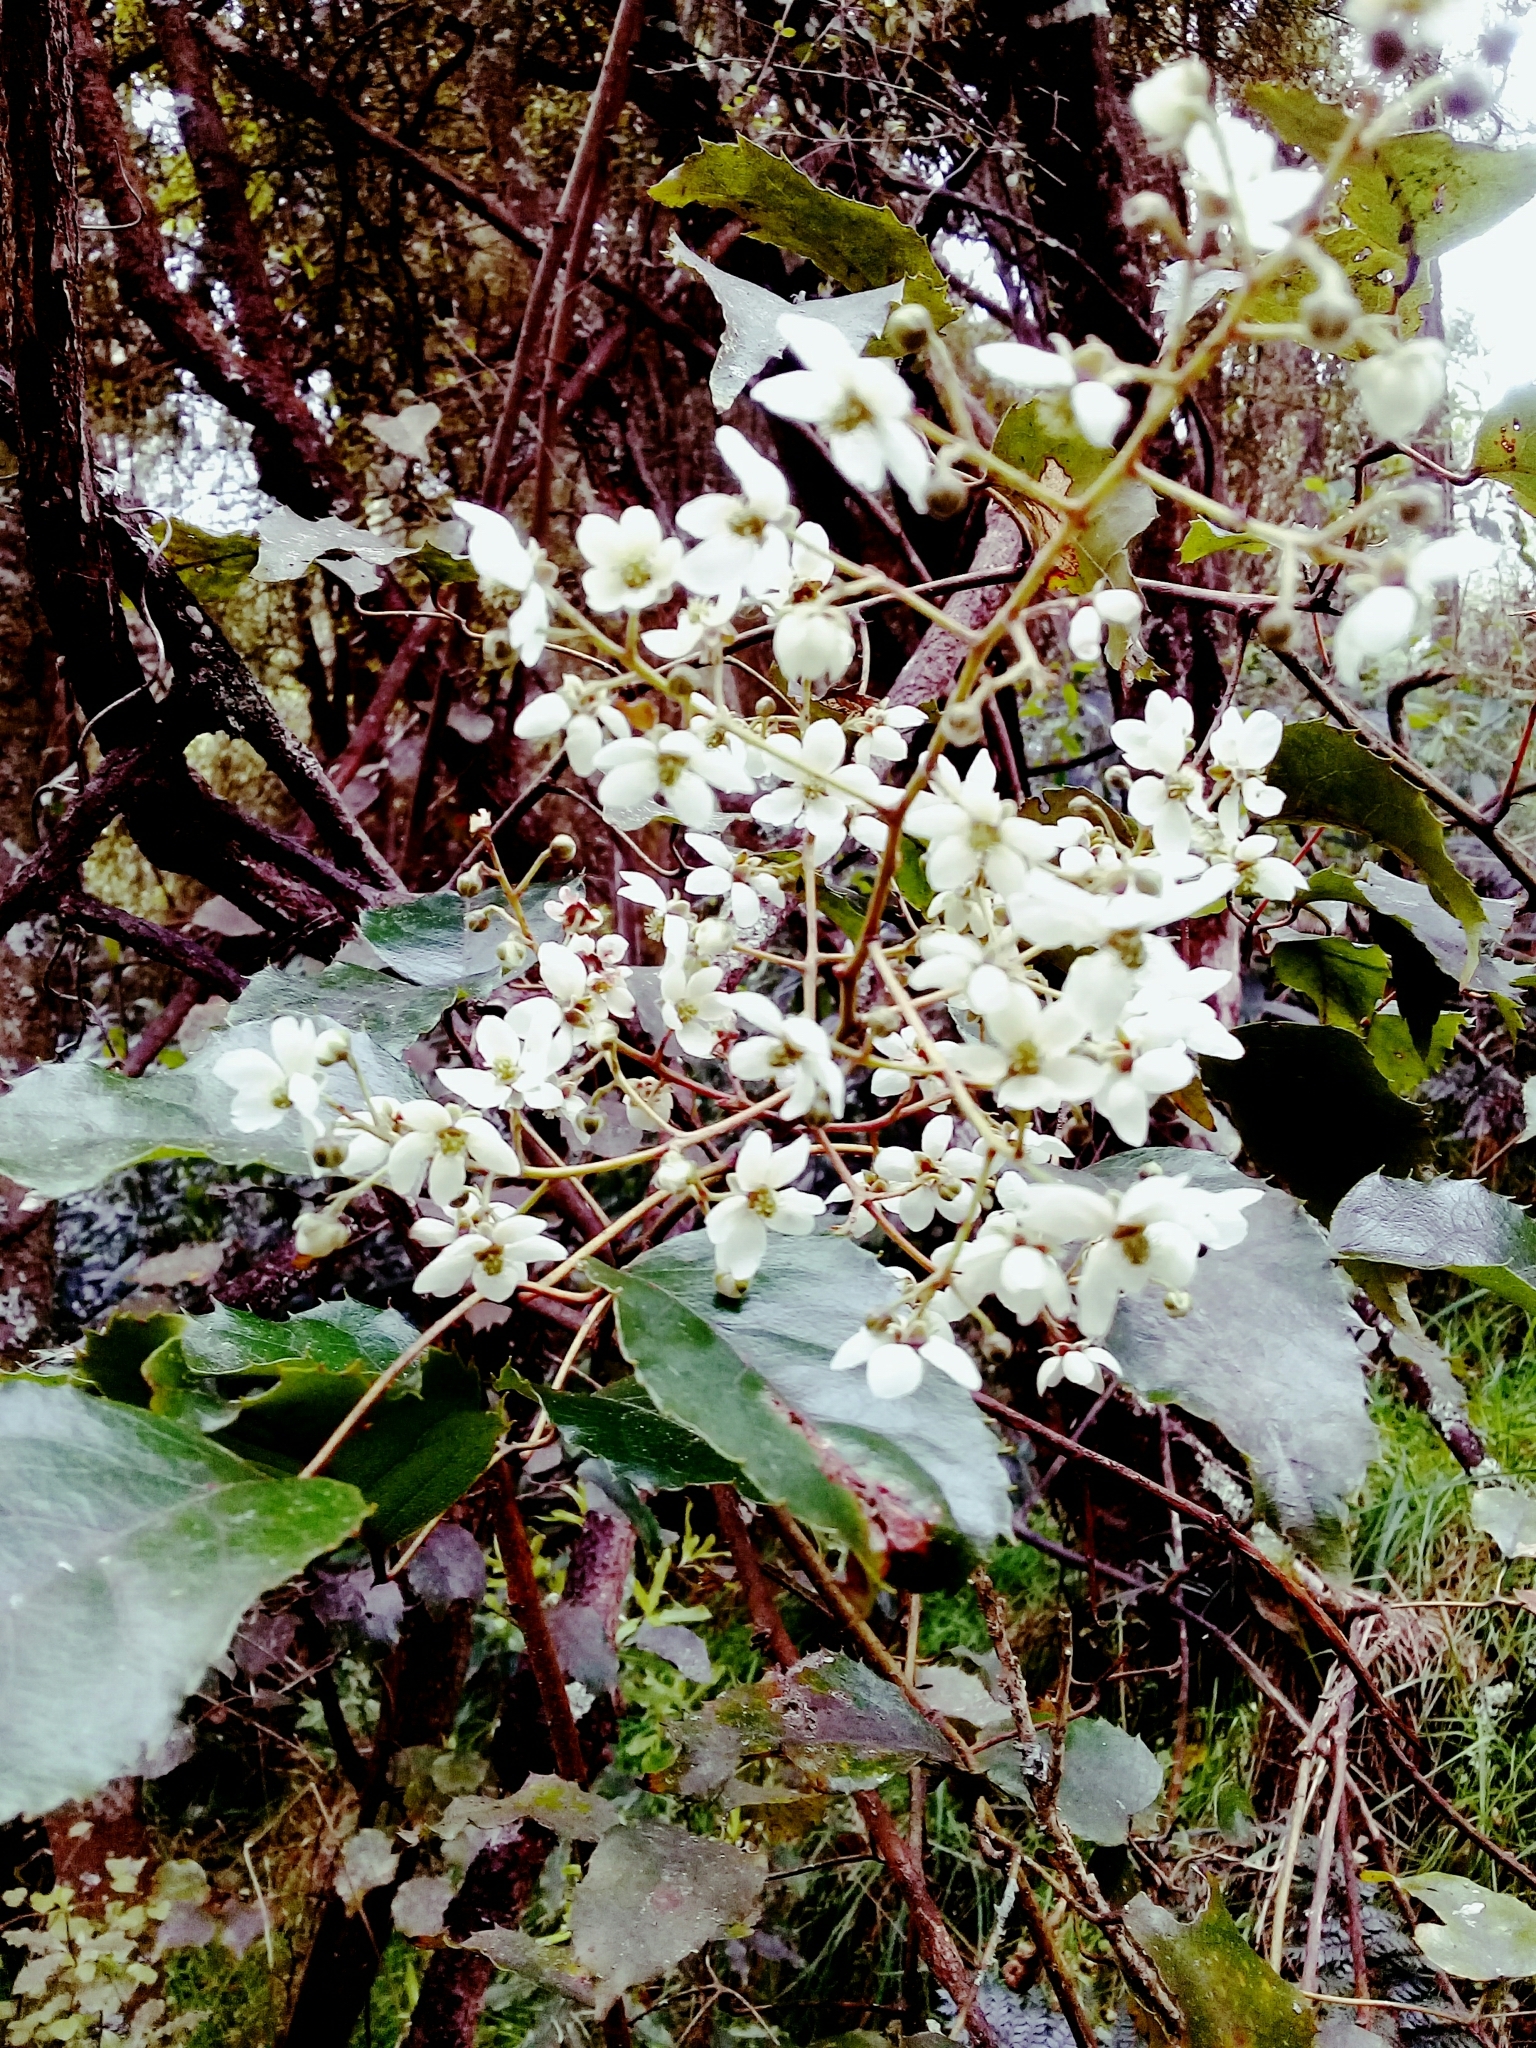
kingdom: Plantae
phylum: Tracheophyta
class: Magnoliopsida
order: Rosales
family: Rosaceae
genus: Rubus
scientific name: Rubus cissoides
